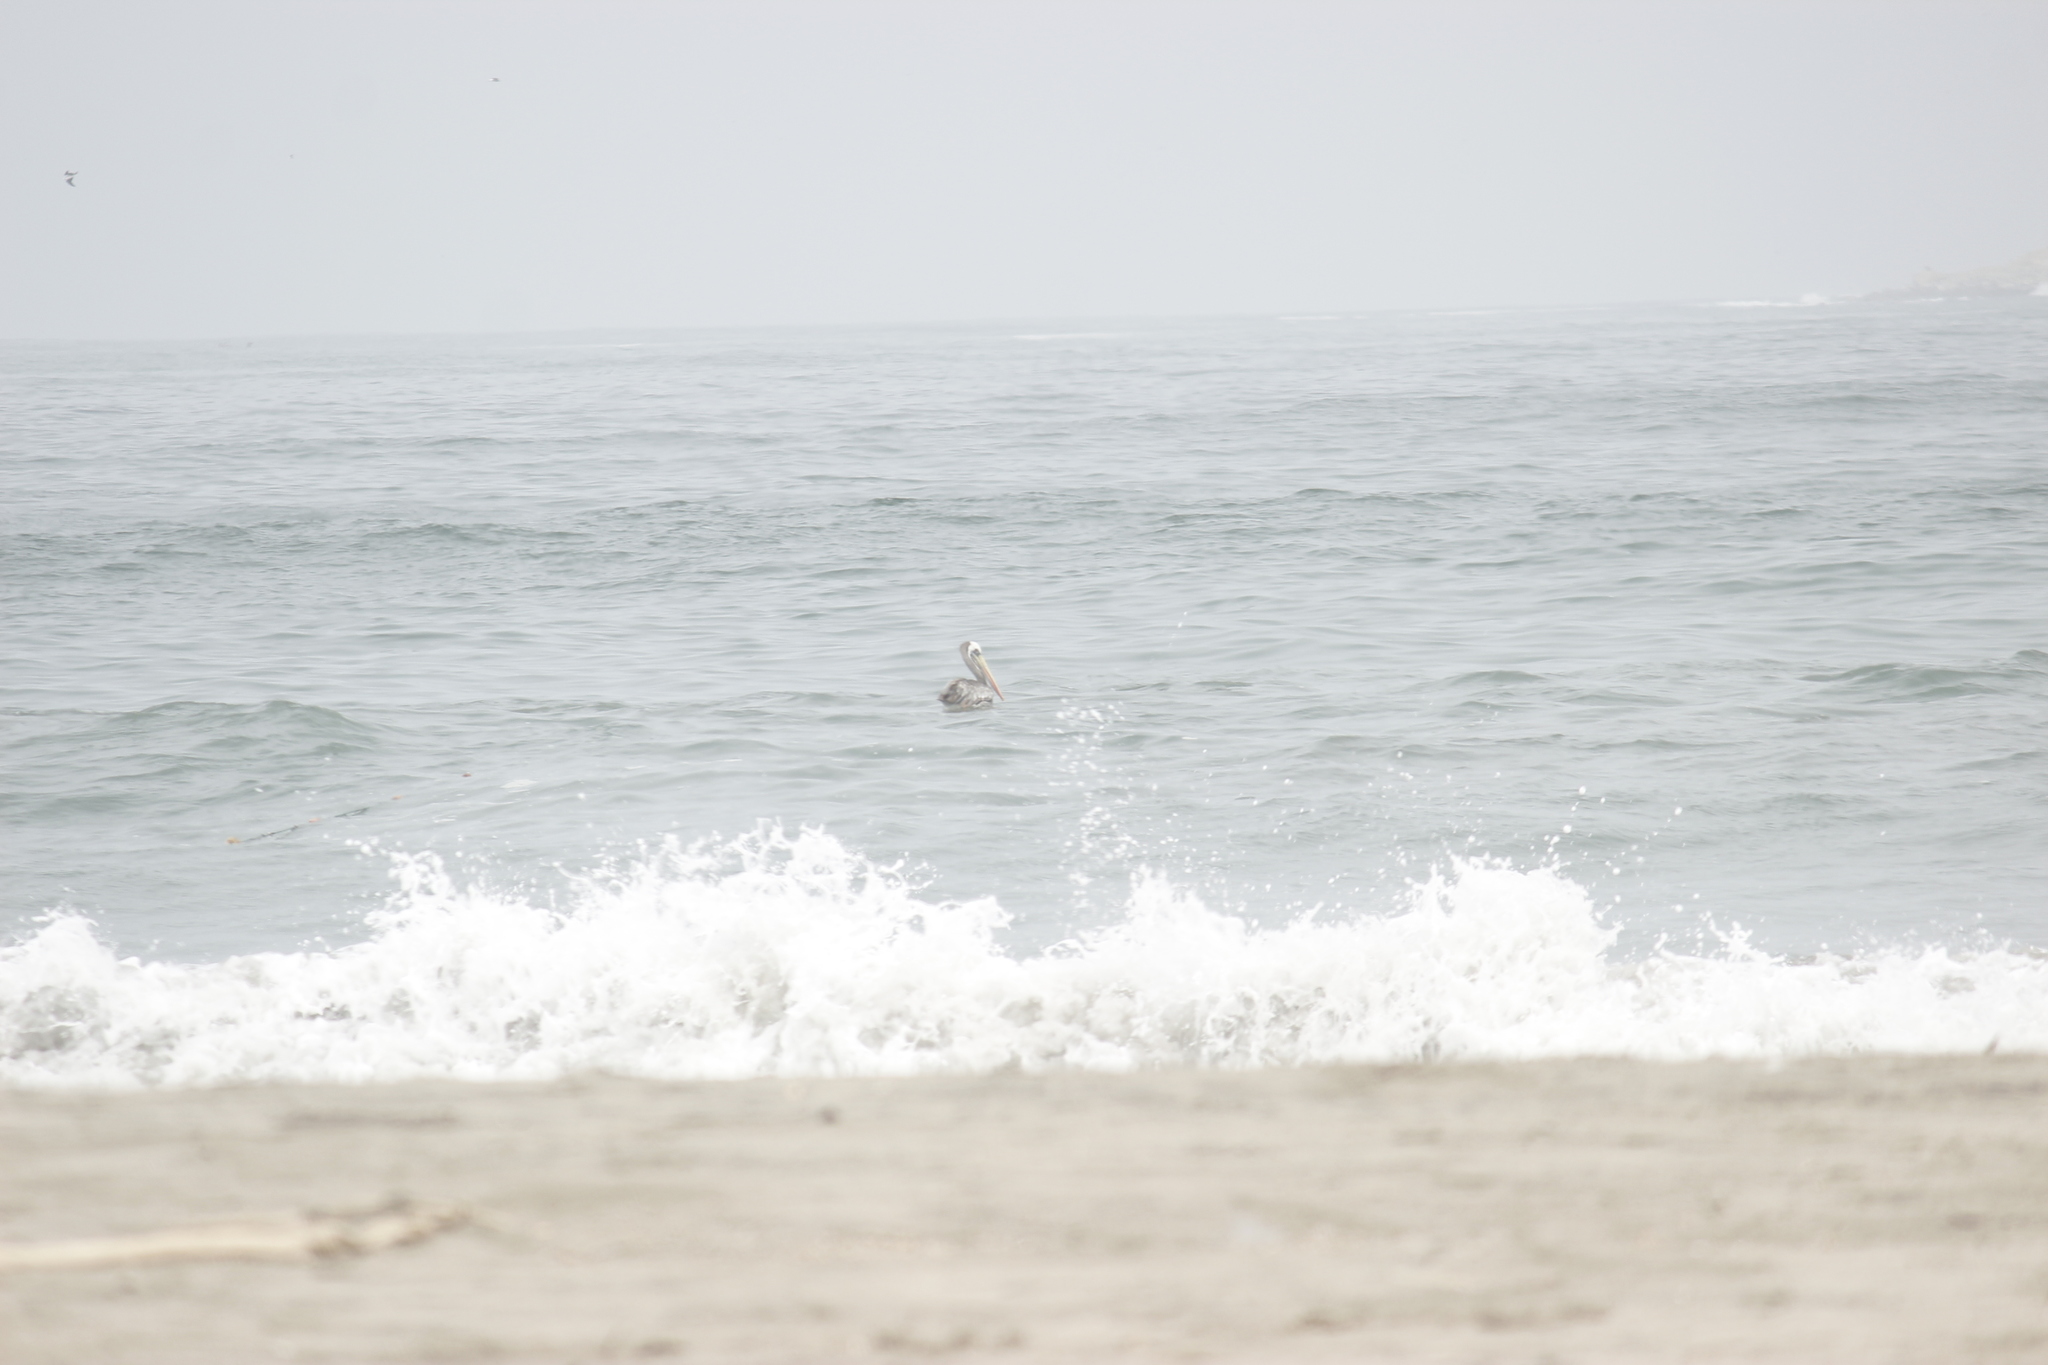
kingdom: Animalia
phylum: Chordata
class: Aves
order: Pelecaniformes
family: Pelecanidae
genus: Pelecanus
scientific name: Pelecanus thagus
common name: Peruvian pelican
